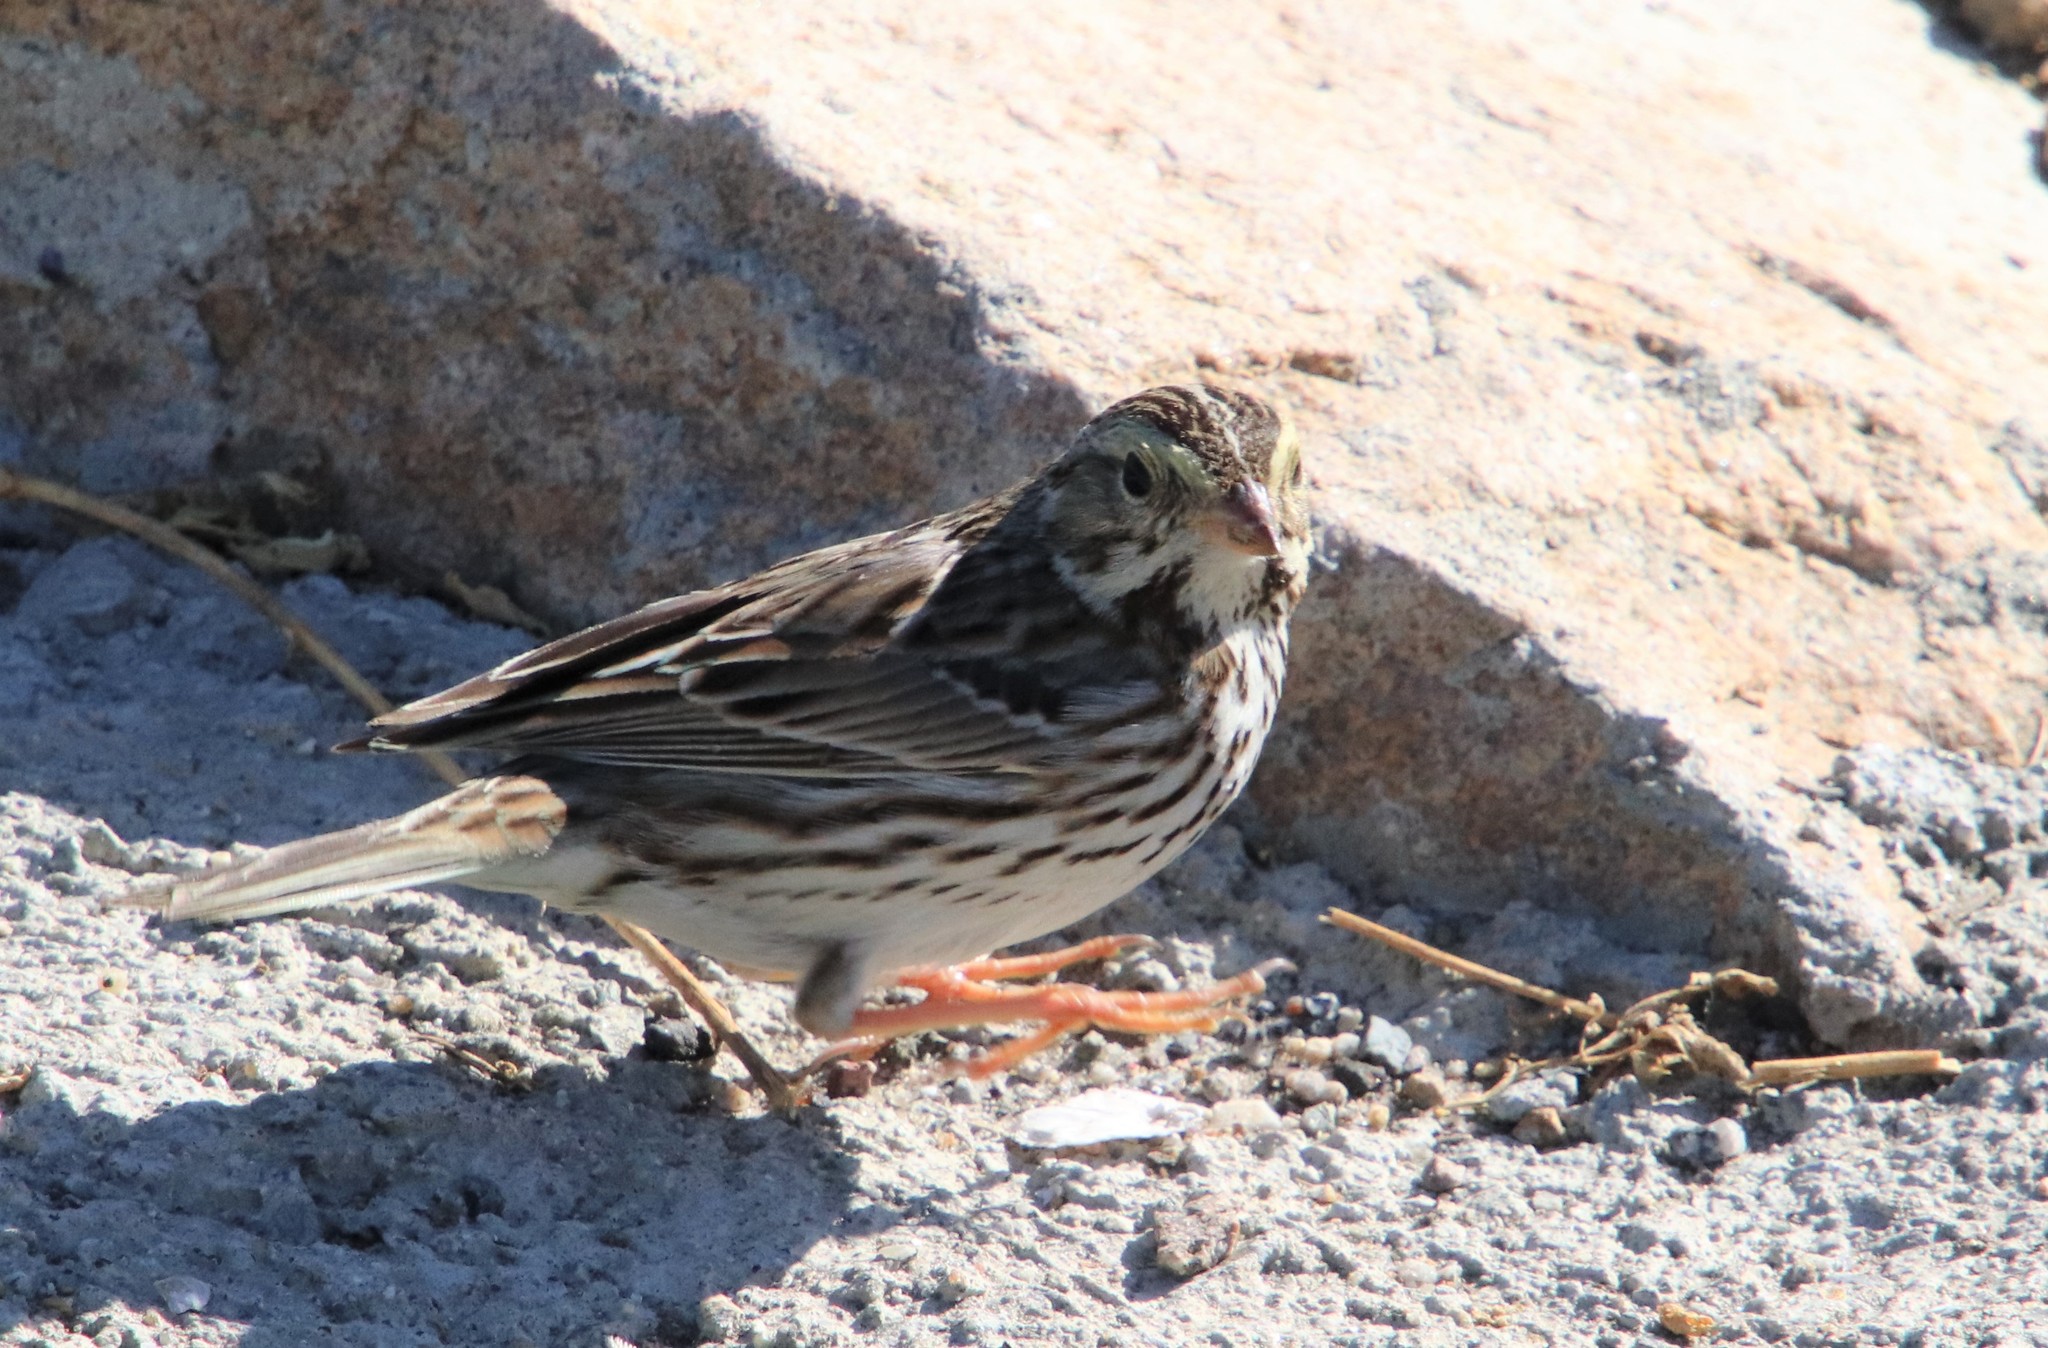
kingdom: Animalia
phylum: Chordata
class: Aves
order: Passeriformes
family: Passerellidae
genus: Passerculus
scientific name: Passerculus sandwichensis
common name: Savannah sparrow
